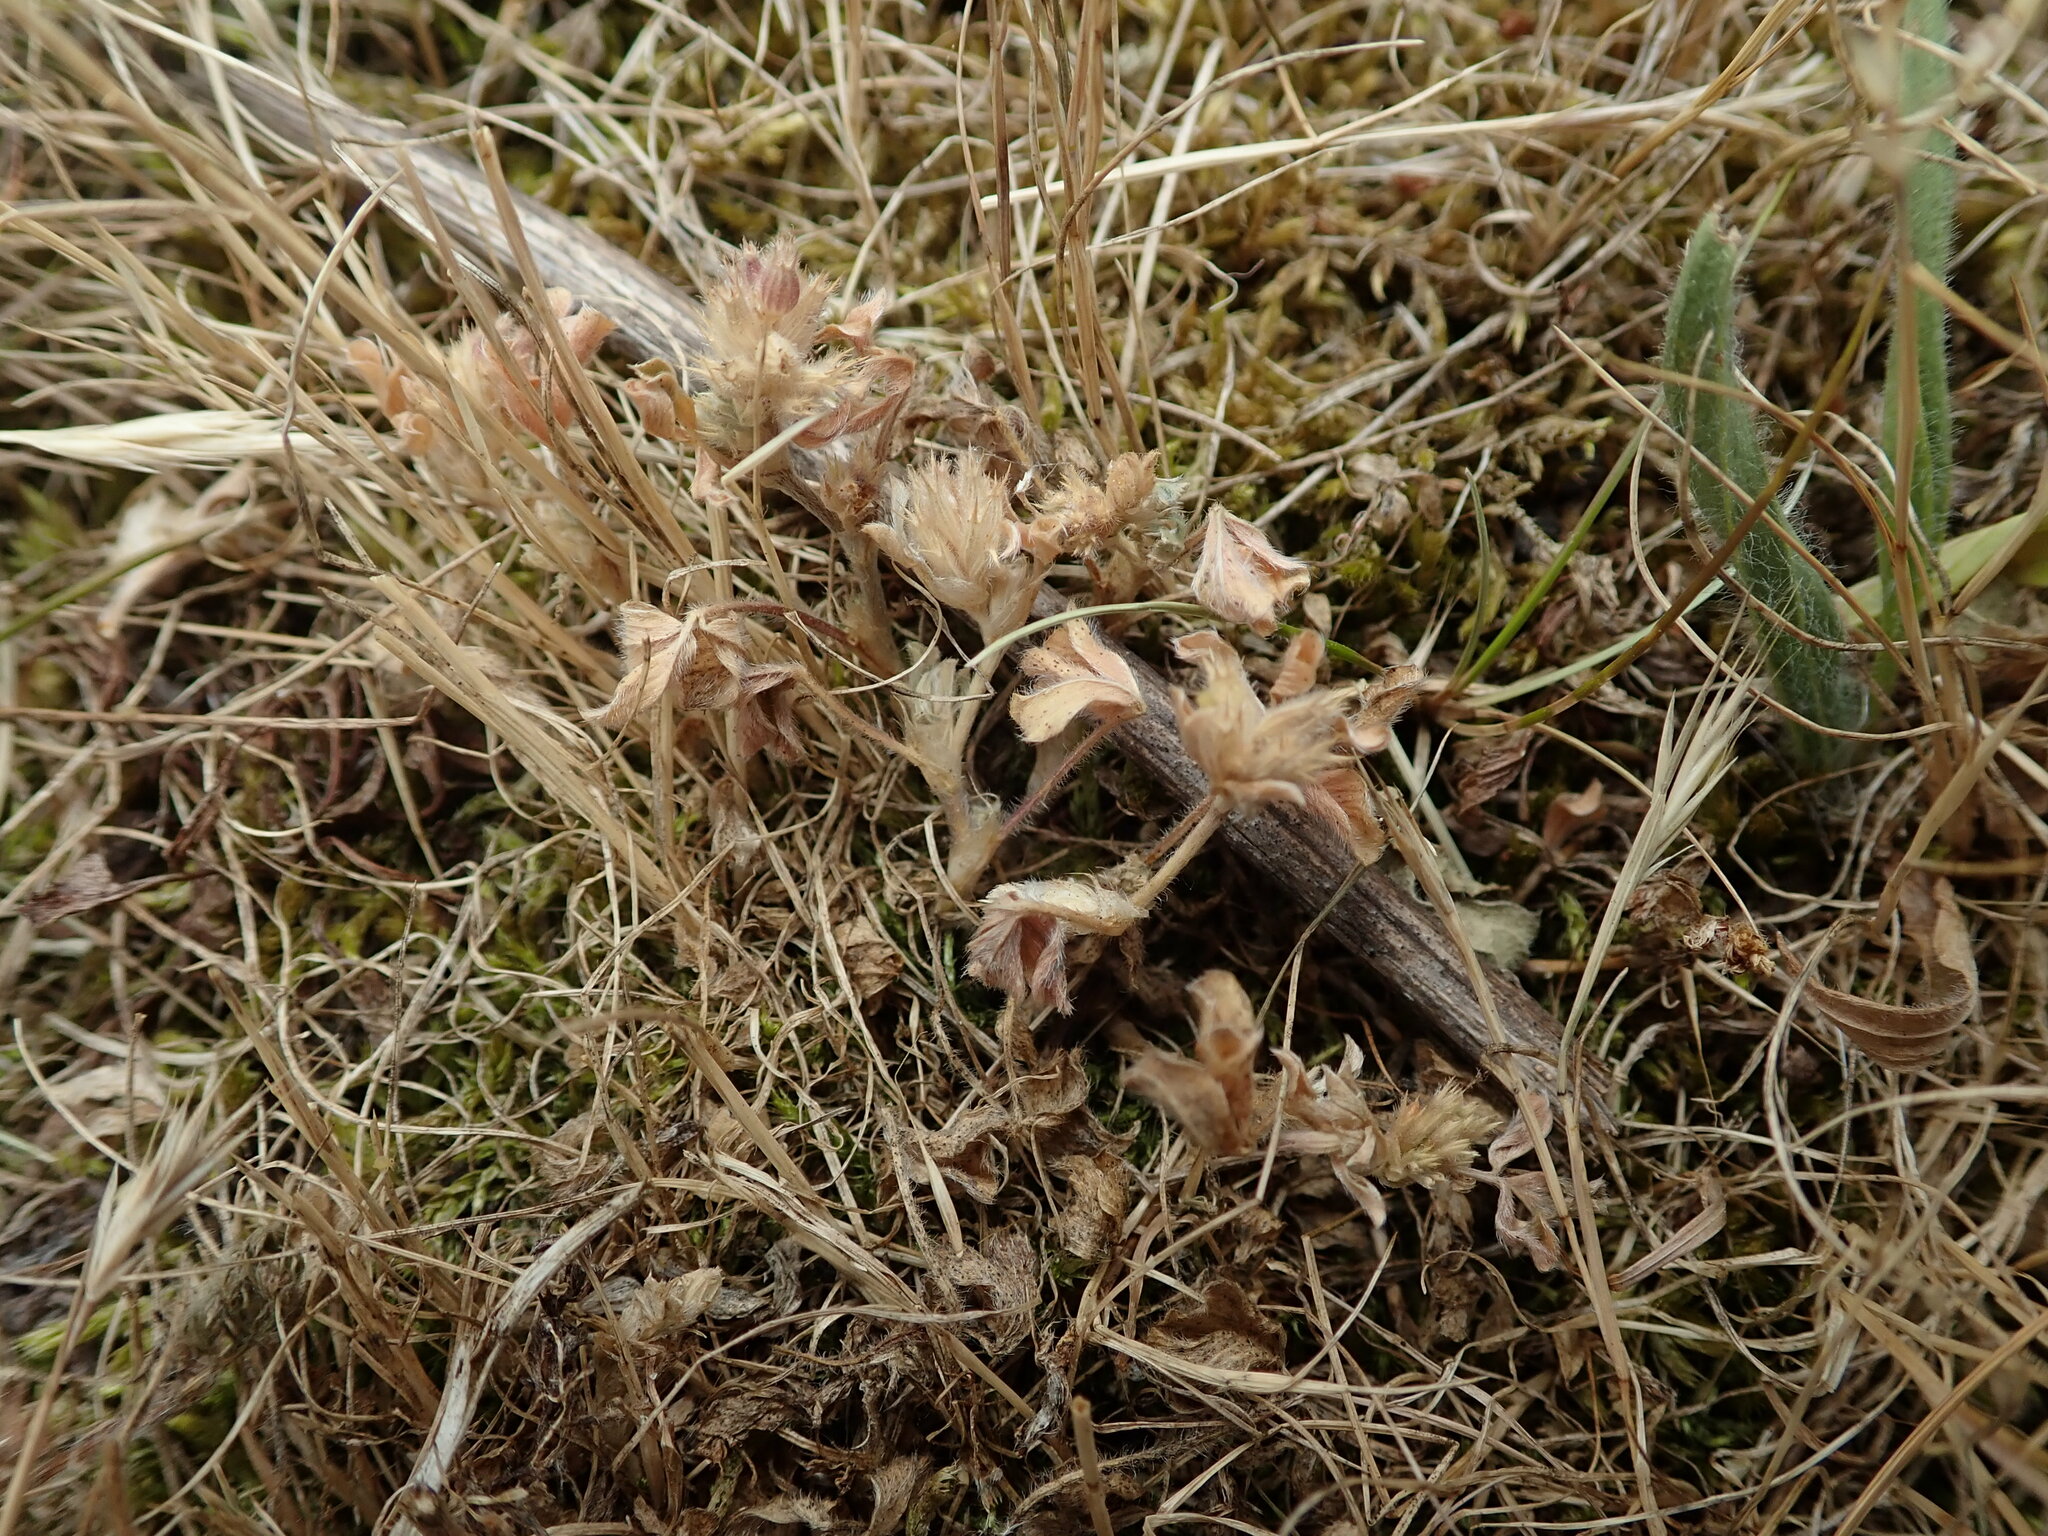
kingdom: Plantae
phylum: Tracheophyta
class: Magnoliopsida
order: Fabales
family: Fabaceae
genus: Trifolium
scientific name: Trifolium striatum
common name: Knotted clover
